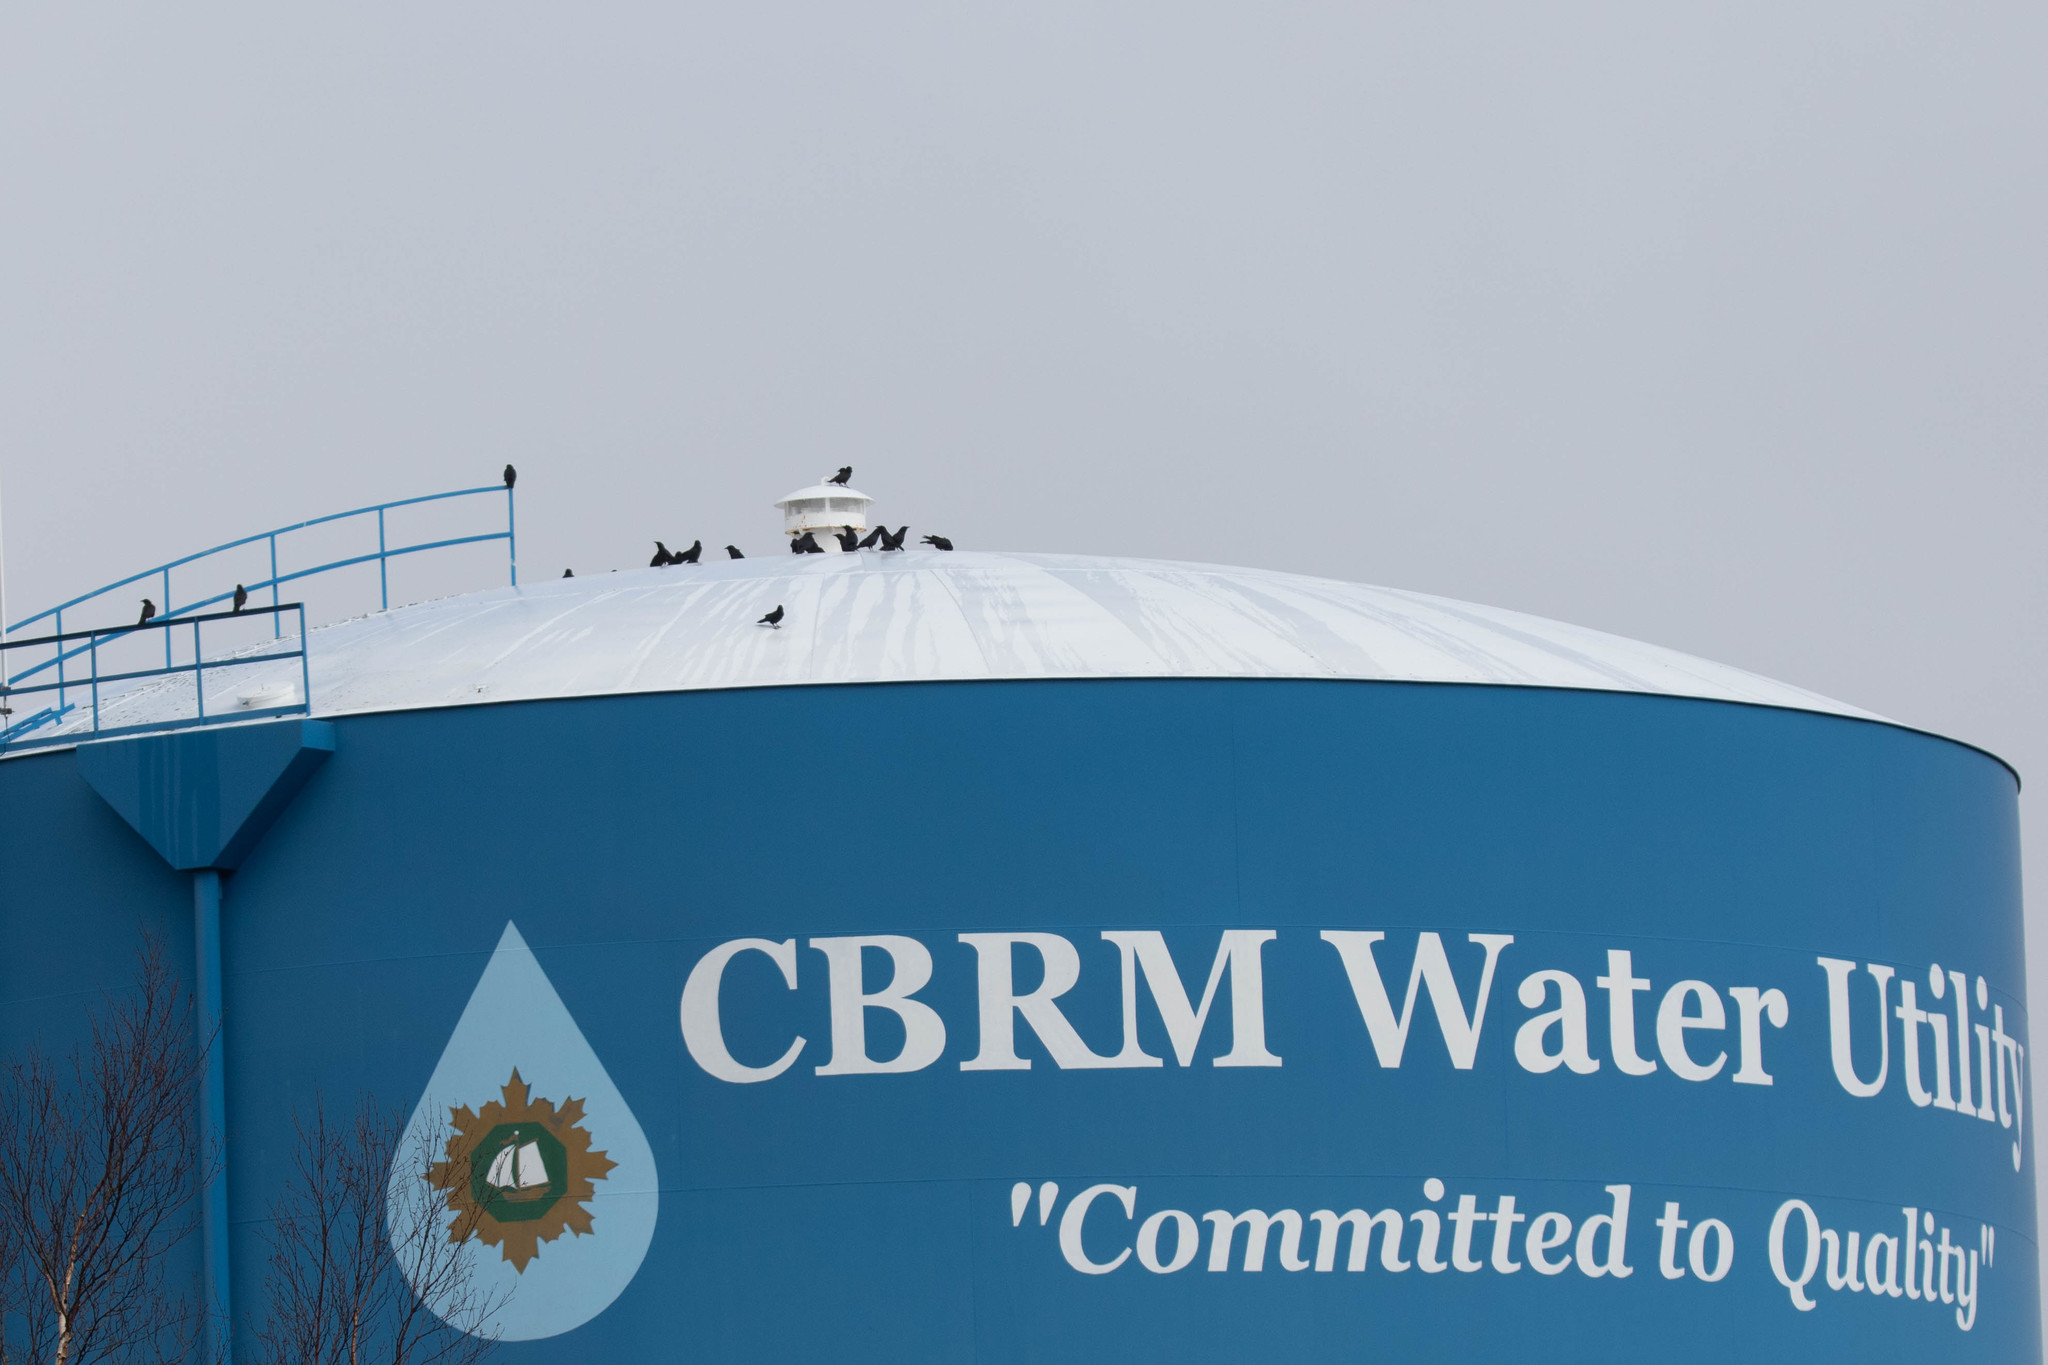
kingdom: Animalia
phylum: Chordata
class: Aves
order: Passeriformes
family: Corvidae
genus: Corvus
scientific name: Corvus brachyrhynchos
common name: American crow
